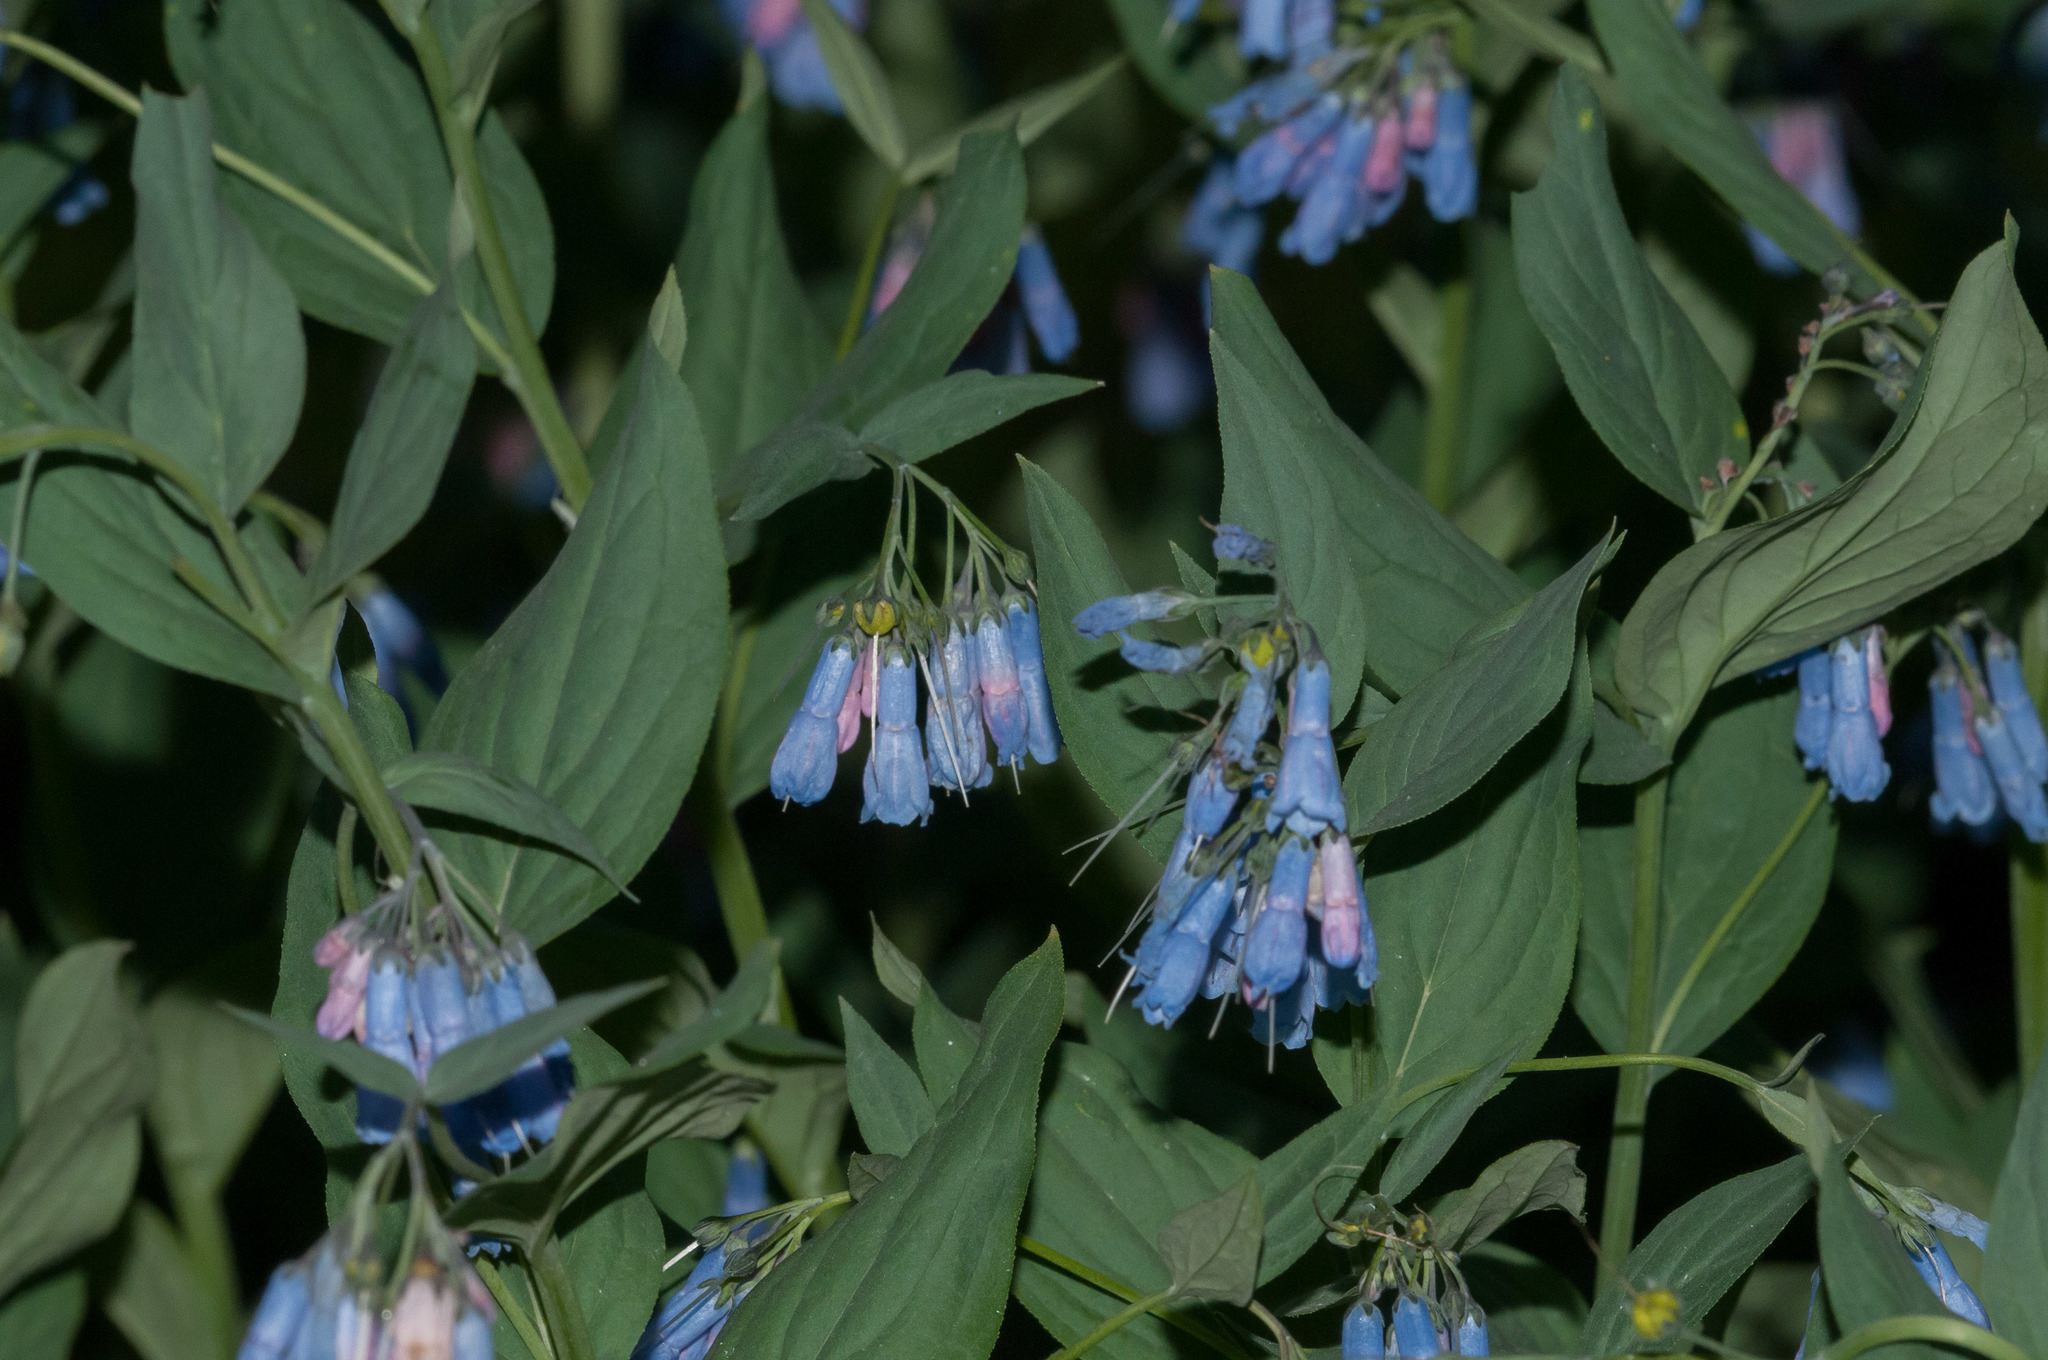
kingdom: Plantae
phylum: Tracheophyta
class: Magnoliopsida
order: Boraginales
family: Boraginaceae
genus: Mertensia
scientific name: Mertensia ciliata
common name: Tall chiming-bells
